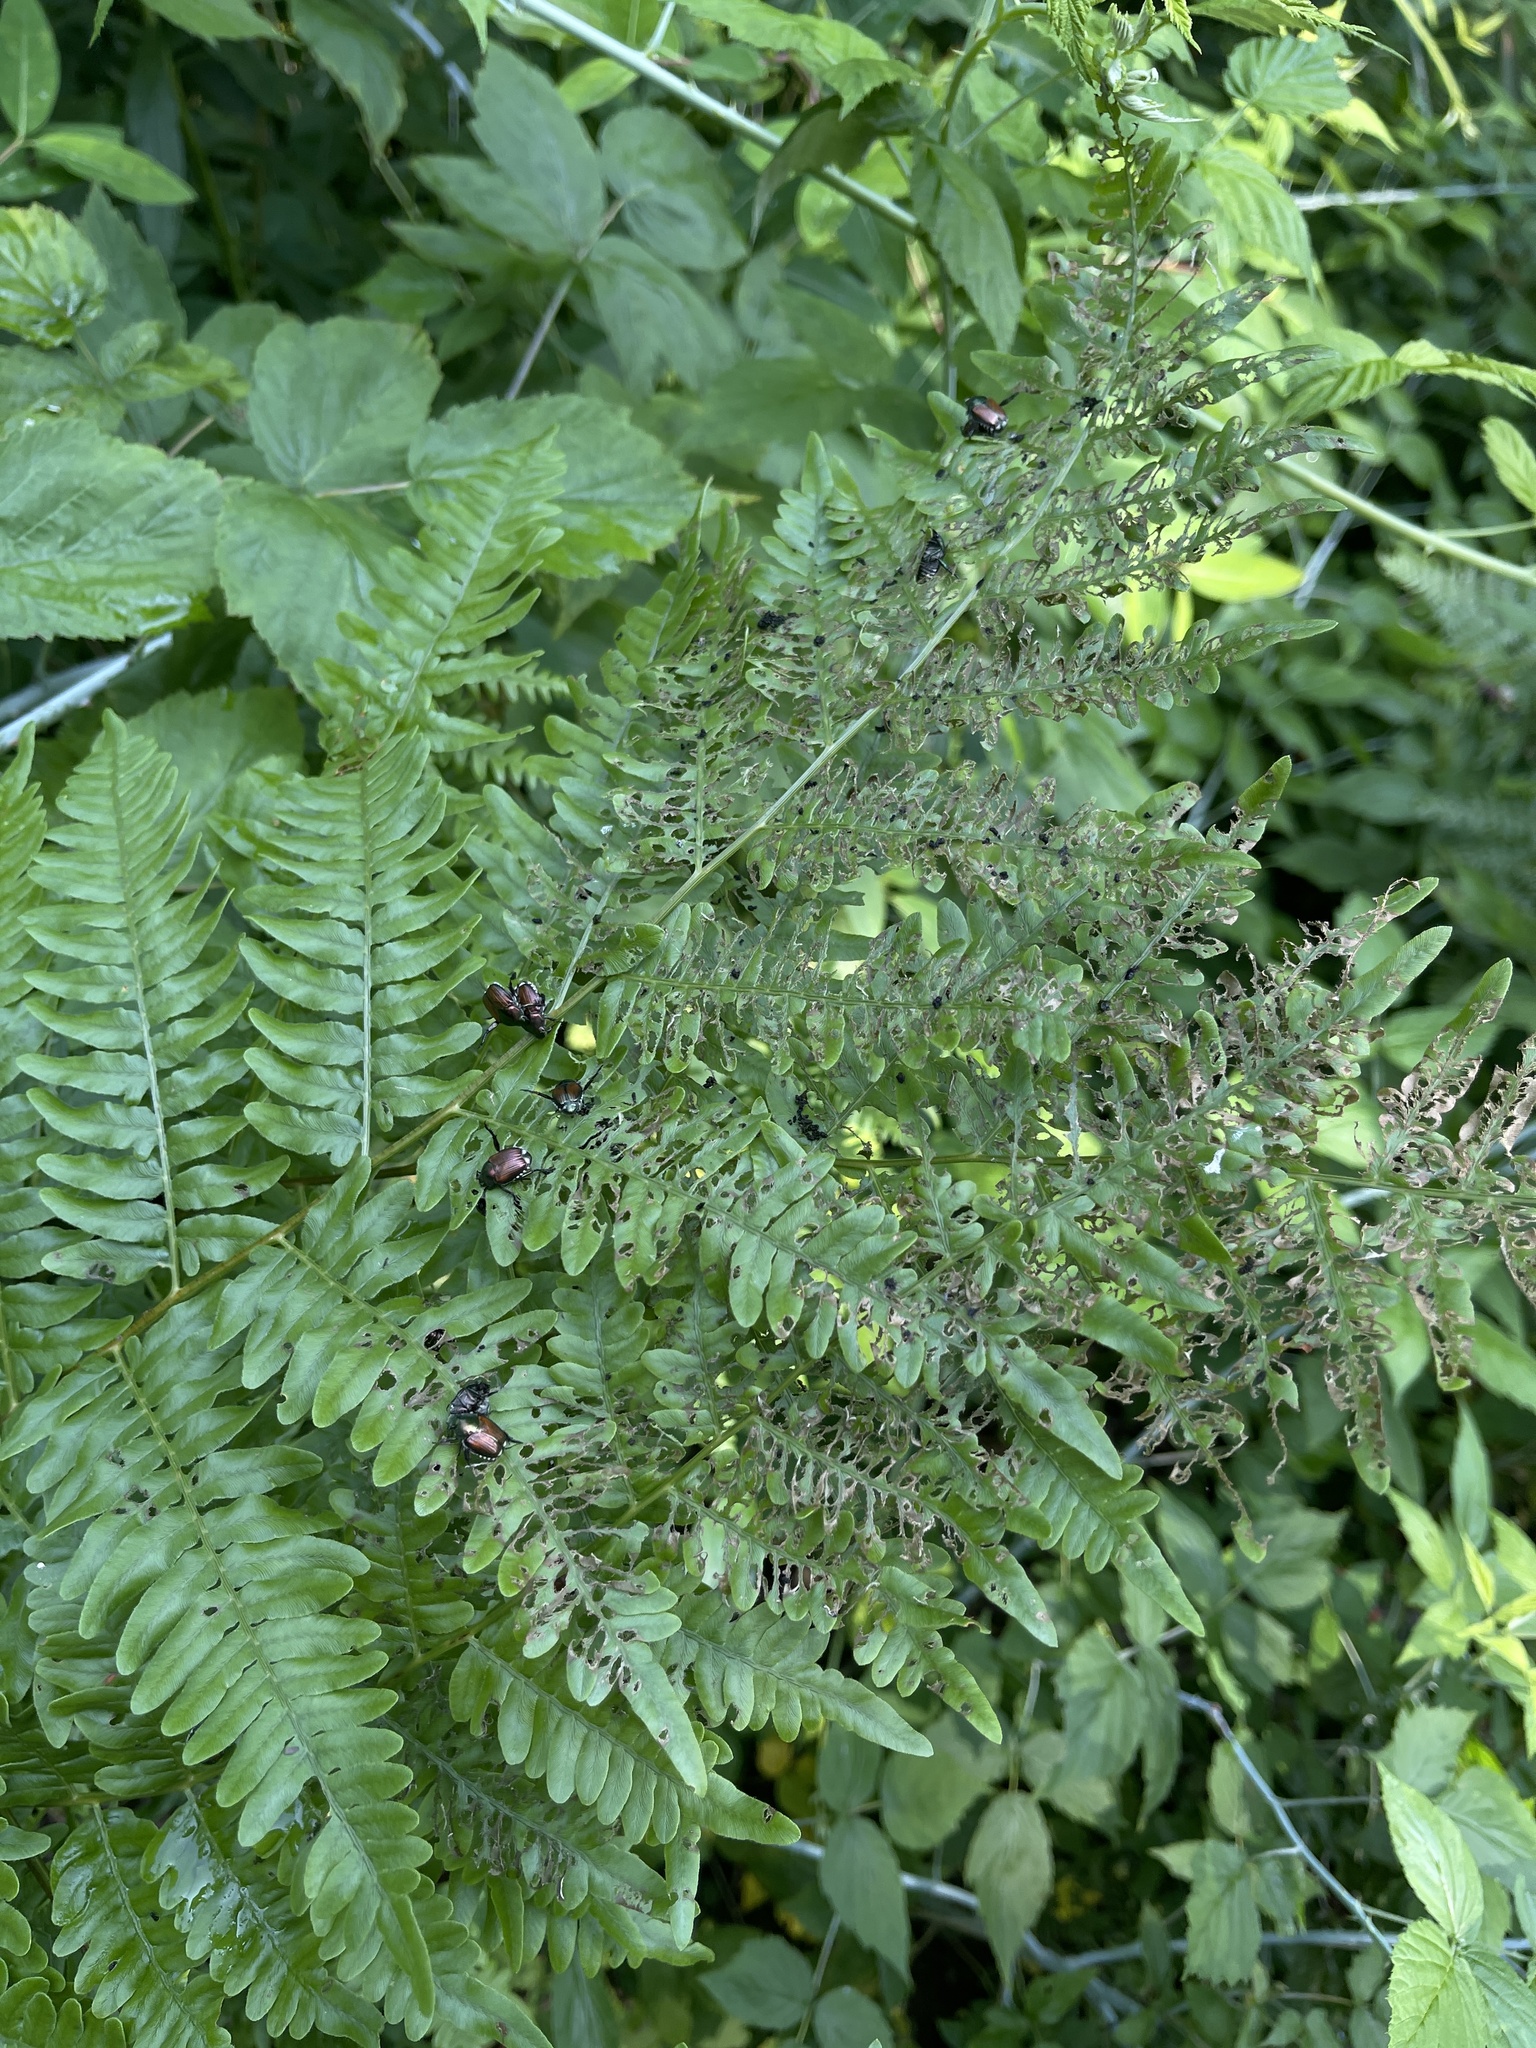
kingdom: Animalia
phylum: Arthropoda
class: Insecta
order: Coleoptera
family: Scarabaeidae
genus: Popillia
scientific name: Popillia japonica
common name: Japanese beetle
